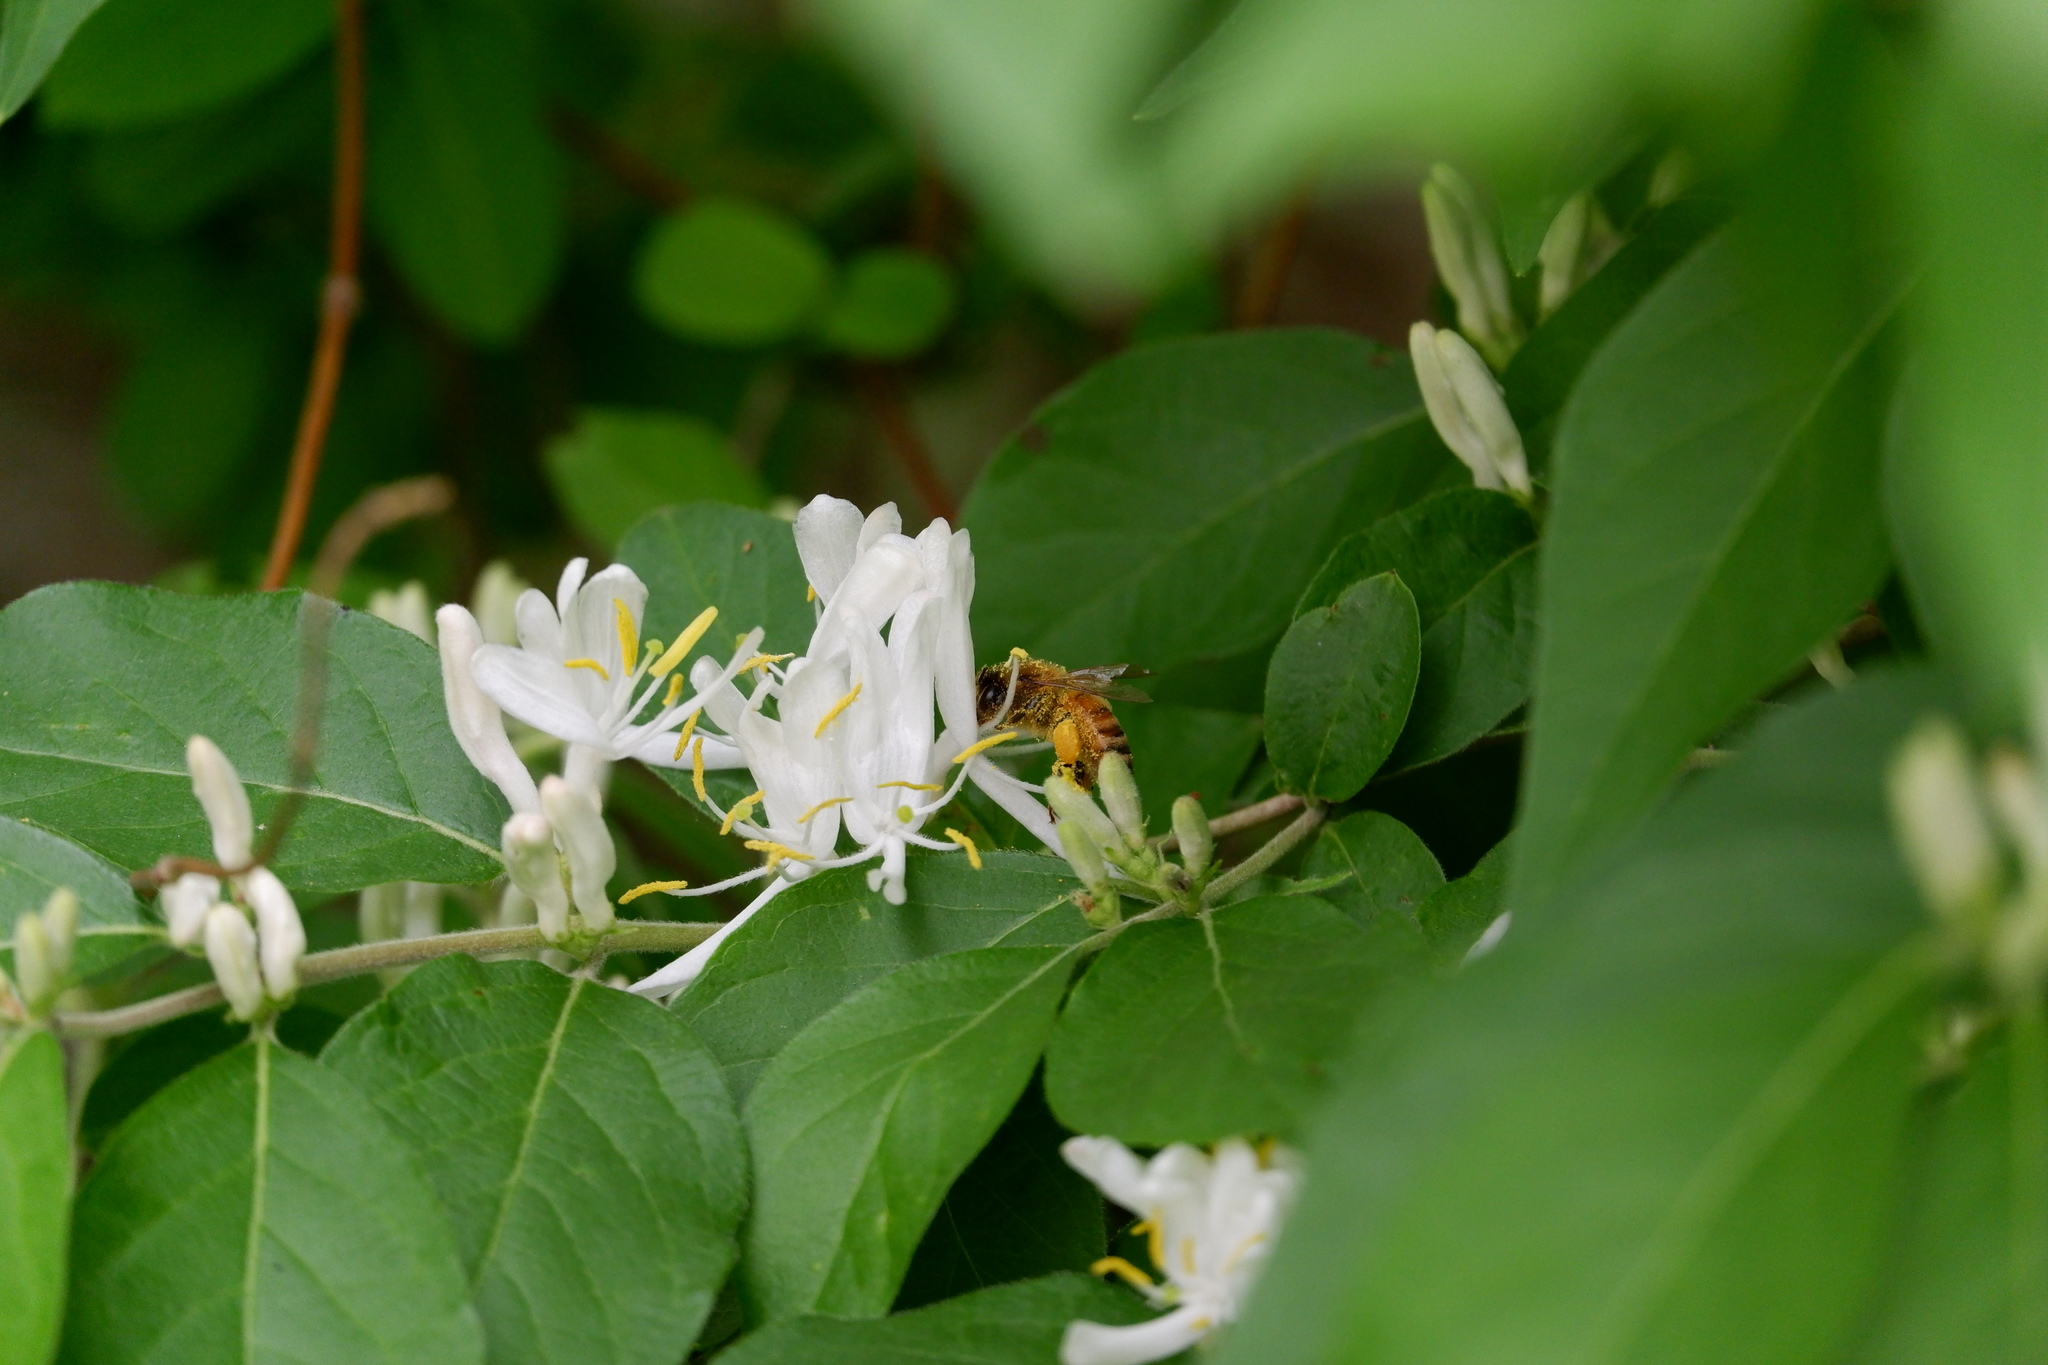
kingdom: Animalia
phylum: Arthropoda
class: Insecta
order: Hymenoptera
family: Apidae
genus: Apis
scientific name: Apis mellifera
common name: Honey bee
